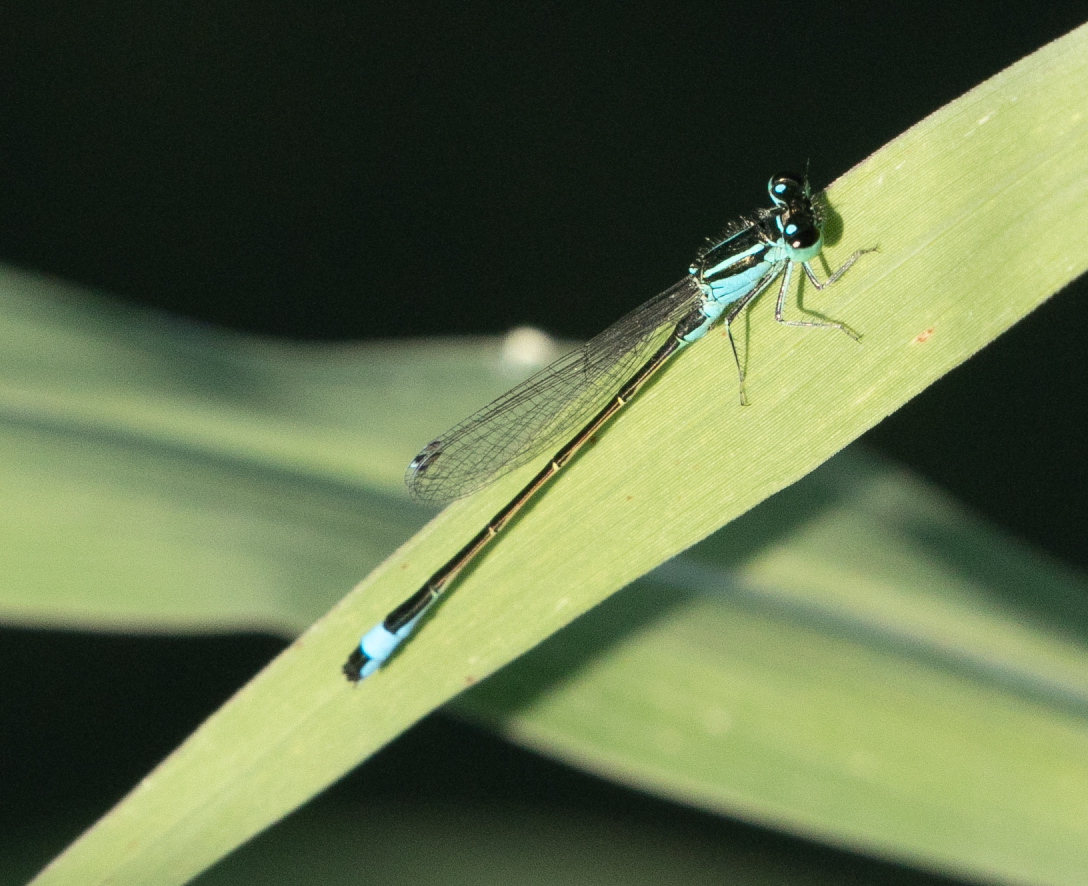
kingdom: Animalia
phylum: Arthropoda
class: Insecta
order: Odonata
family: Coenagrionidae
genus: Ischnura
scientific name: Ischnura elegans
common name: Blue-tailed damselfly
